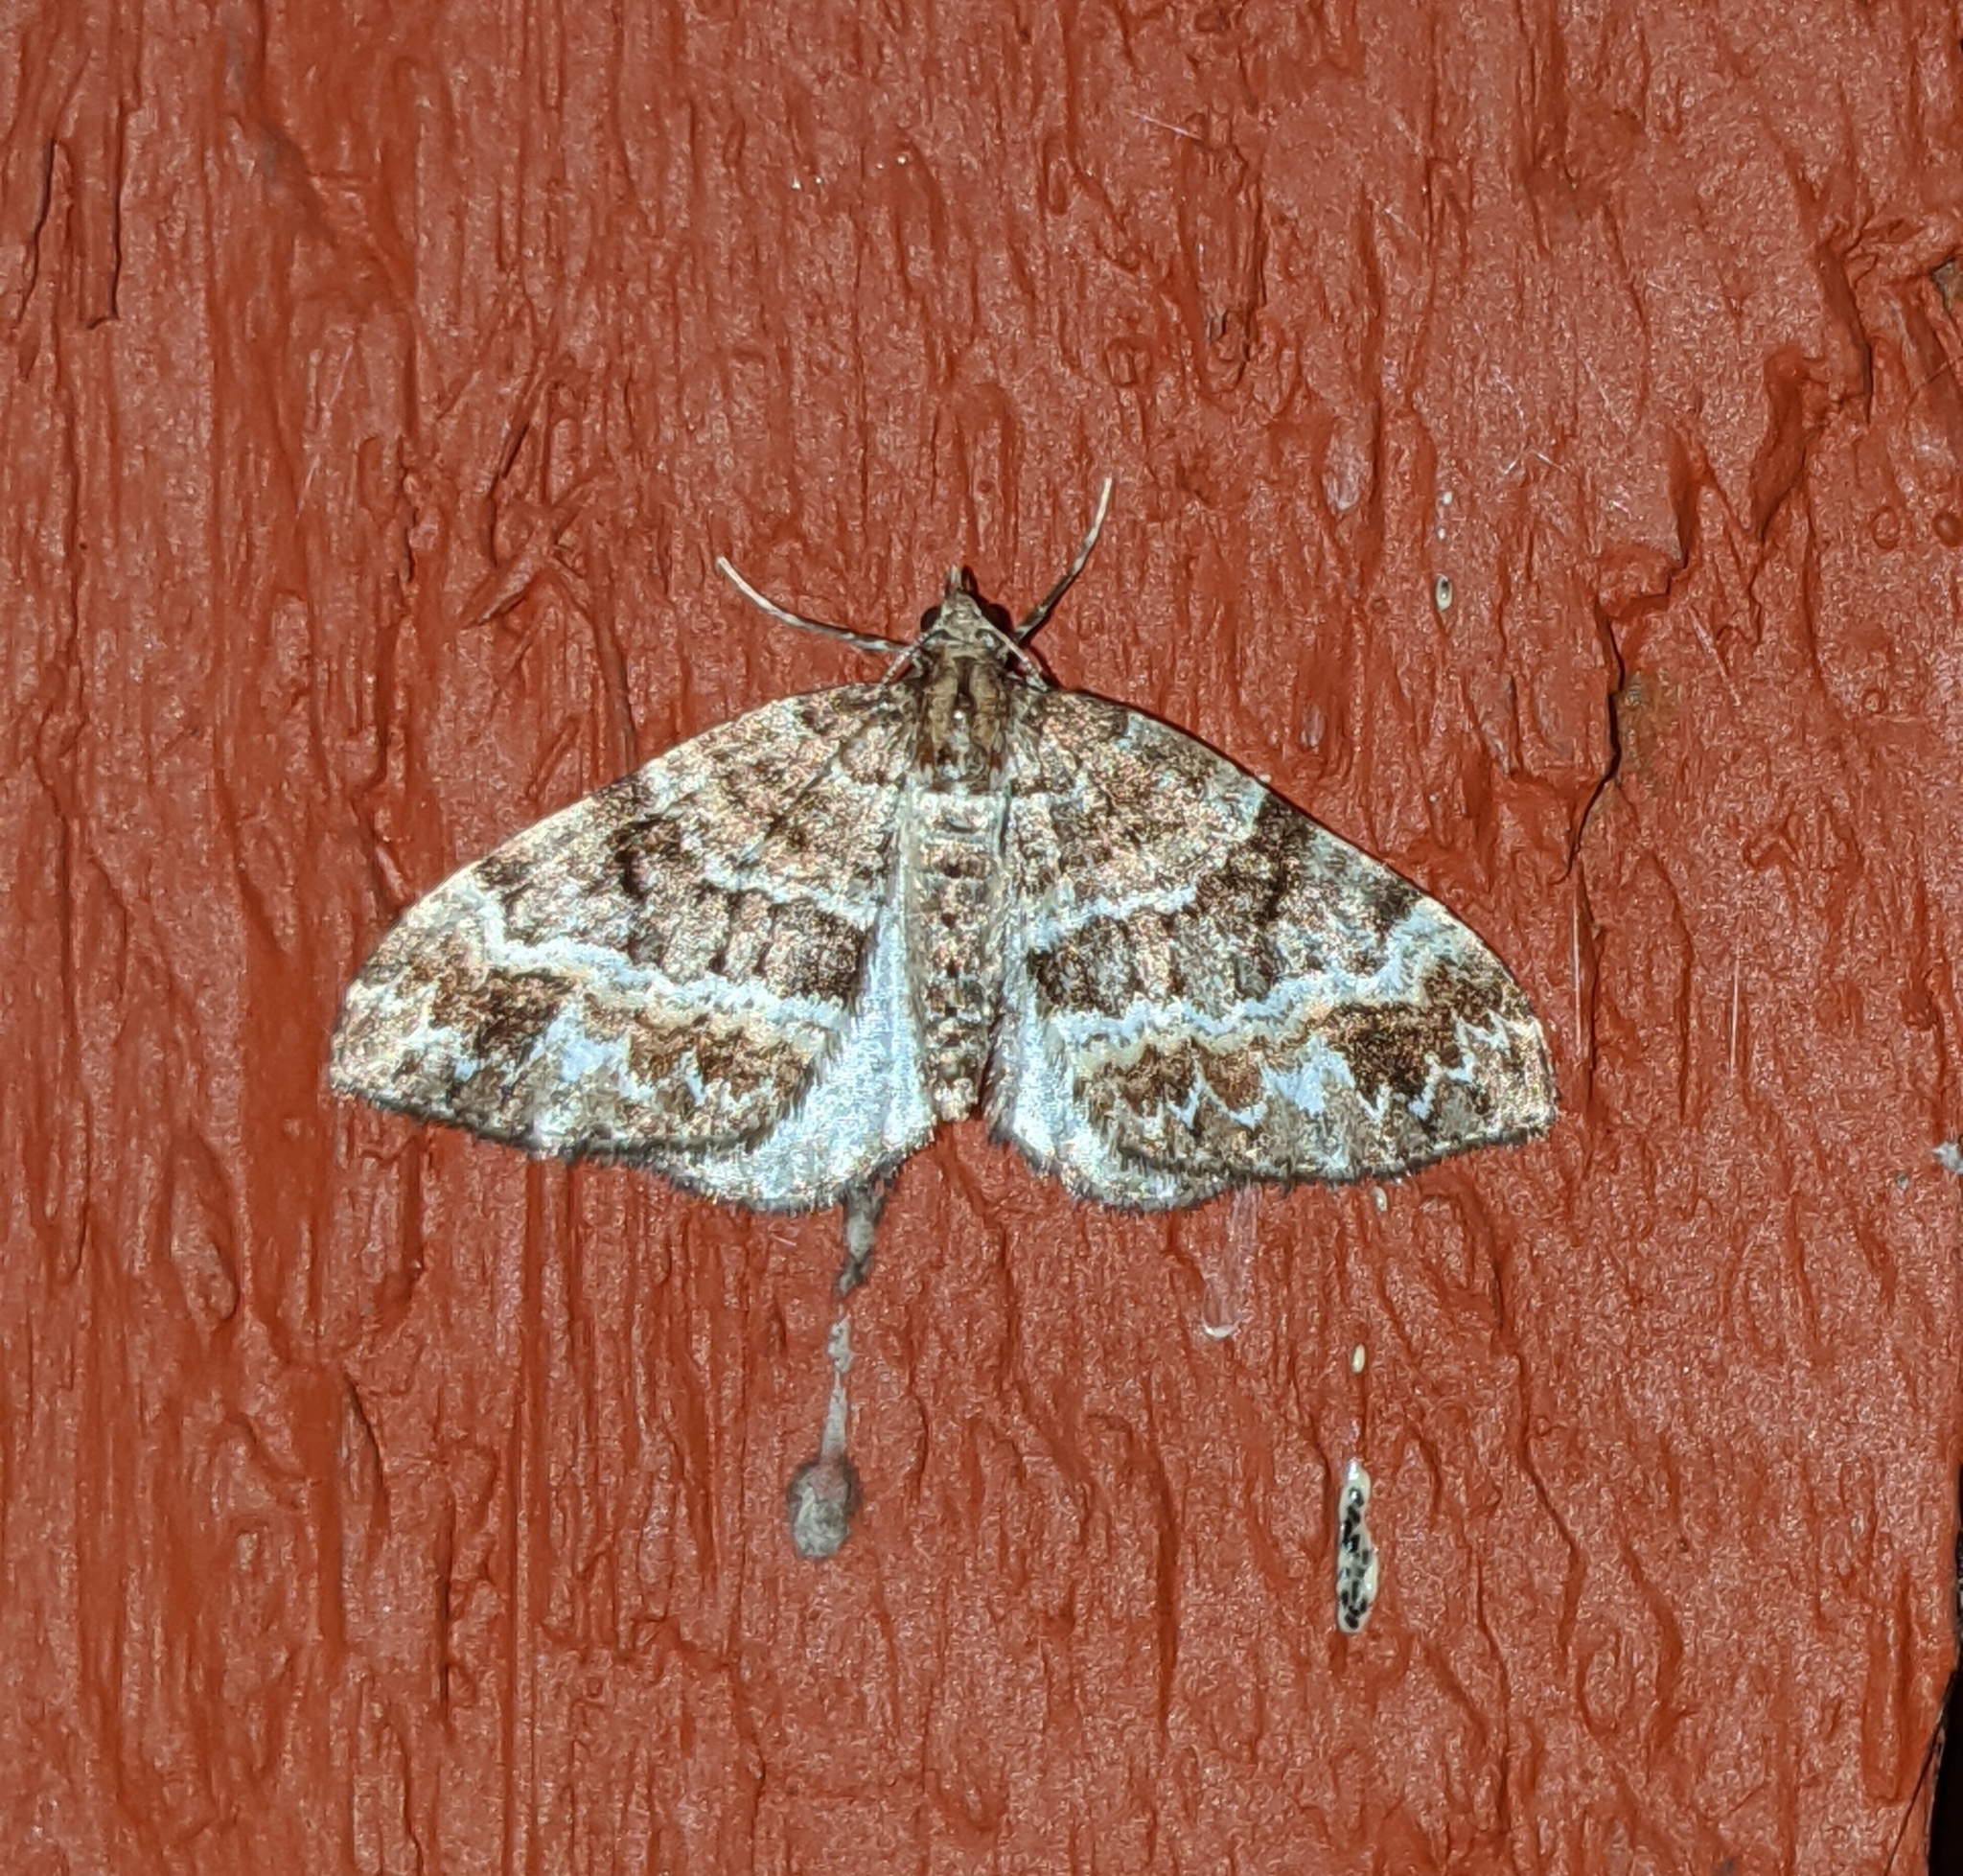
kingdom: Animalia
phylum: Arthropoda
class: Insecta
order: Lepidoptera
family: Geometridae
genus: Martania
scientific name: Martania
